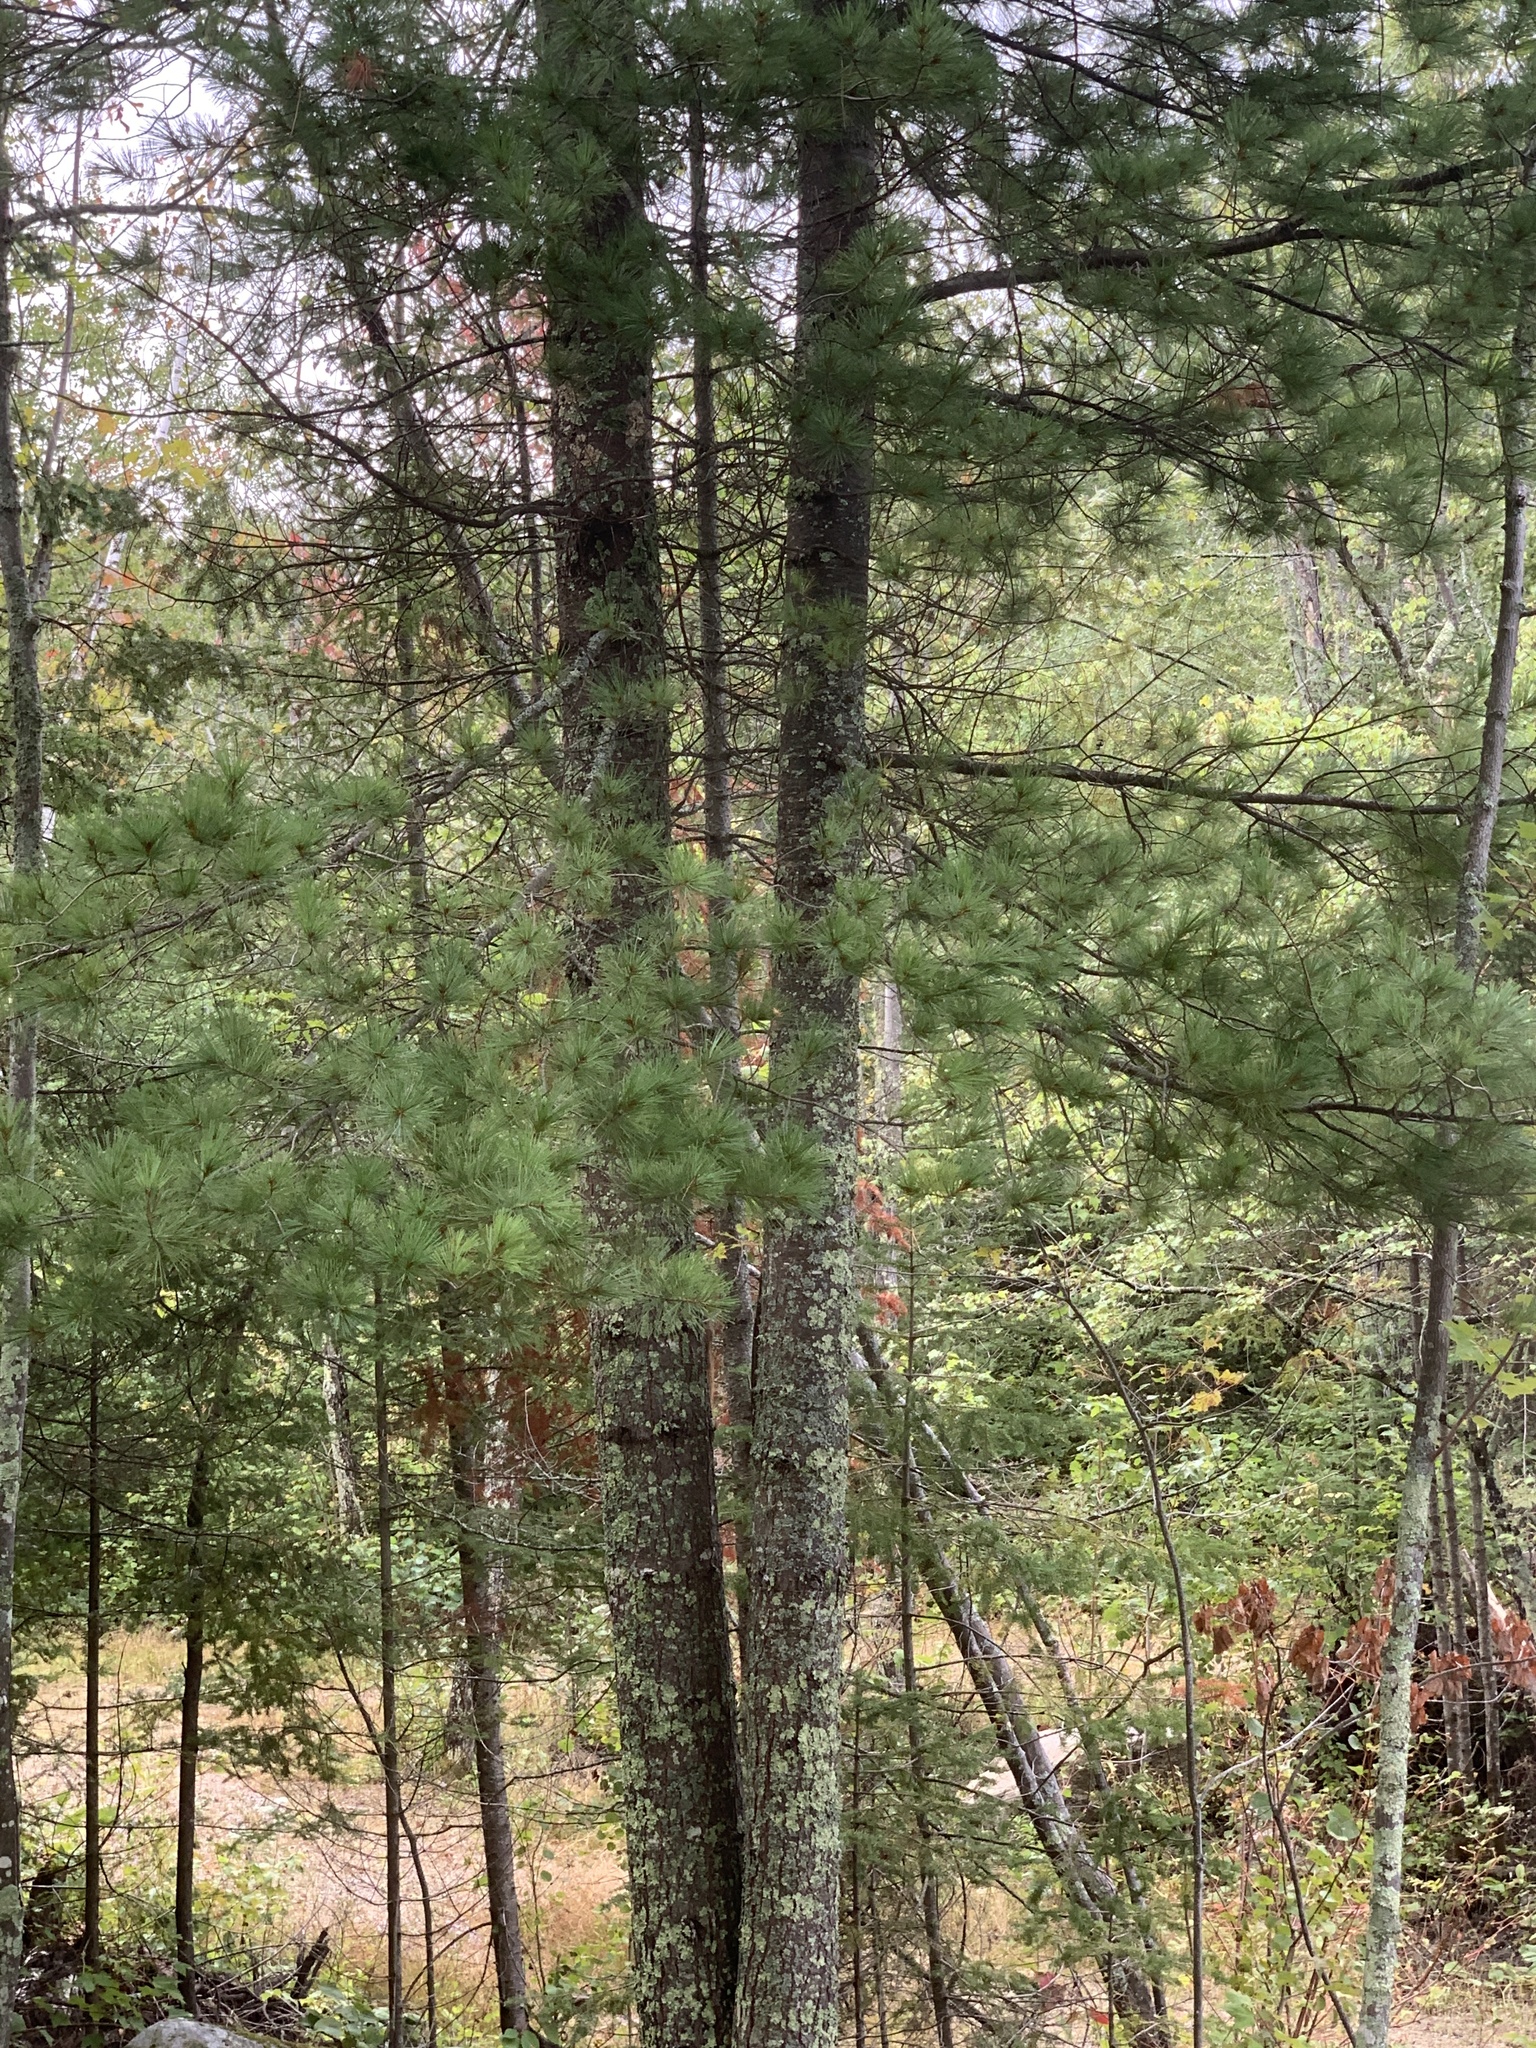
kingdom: Plantae
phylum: Tracheophyta
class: Pinopsida
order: Pinales
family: Pinaceae
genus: Pinus
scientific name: Pinus strobus
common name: Weymouth pine
